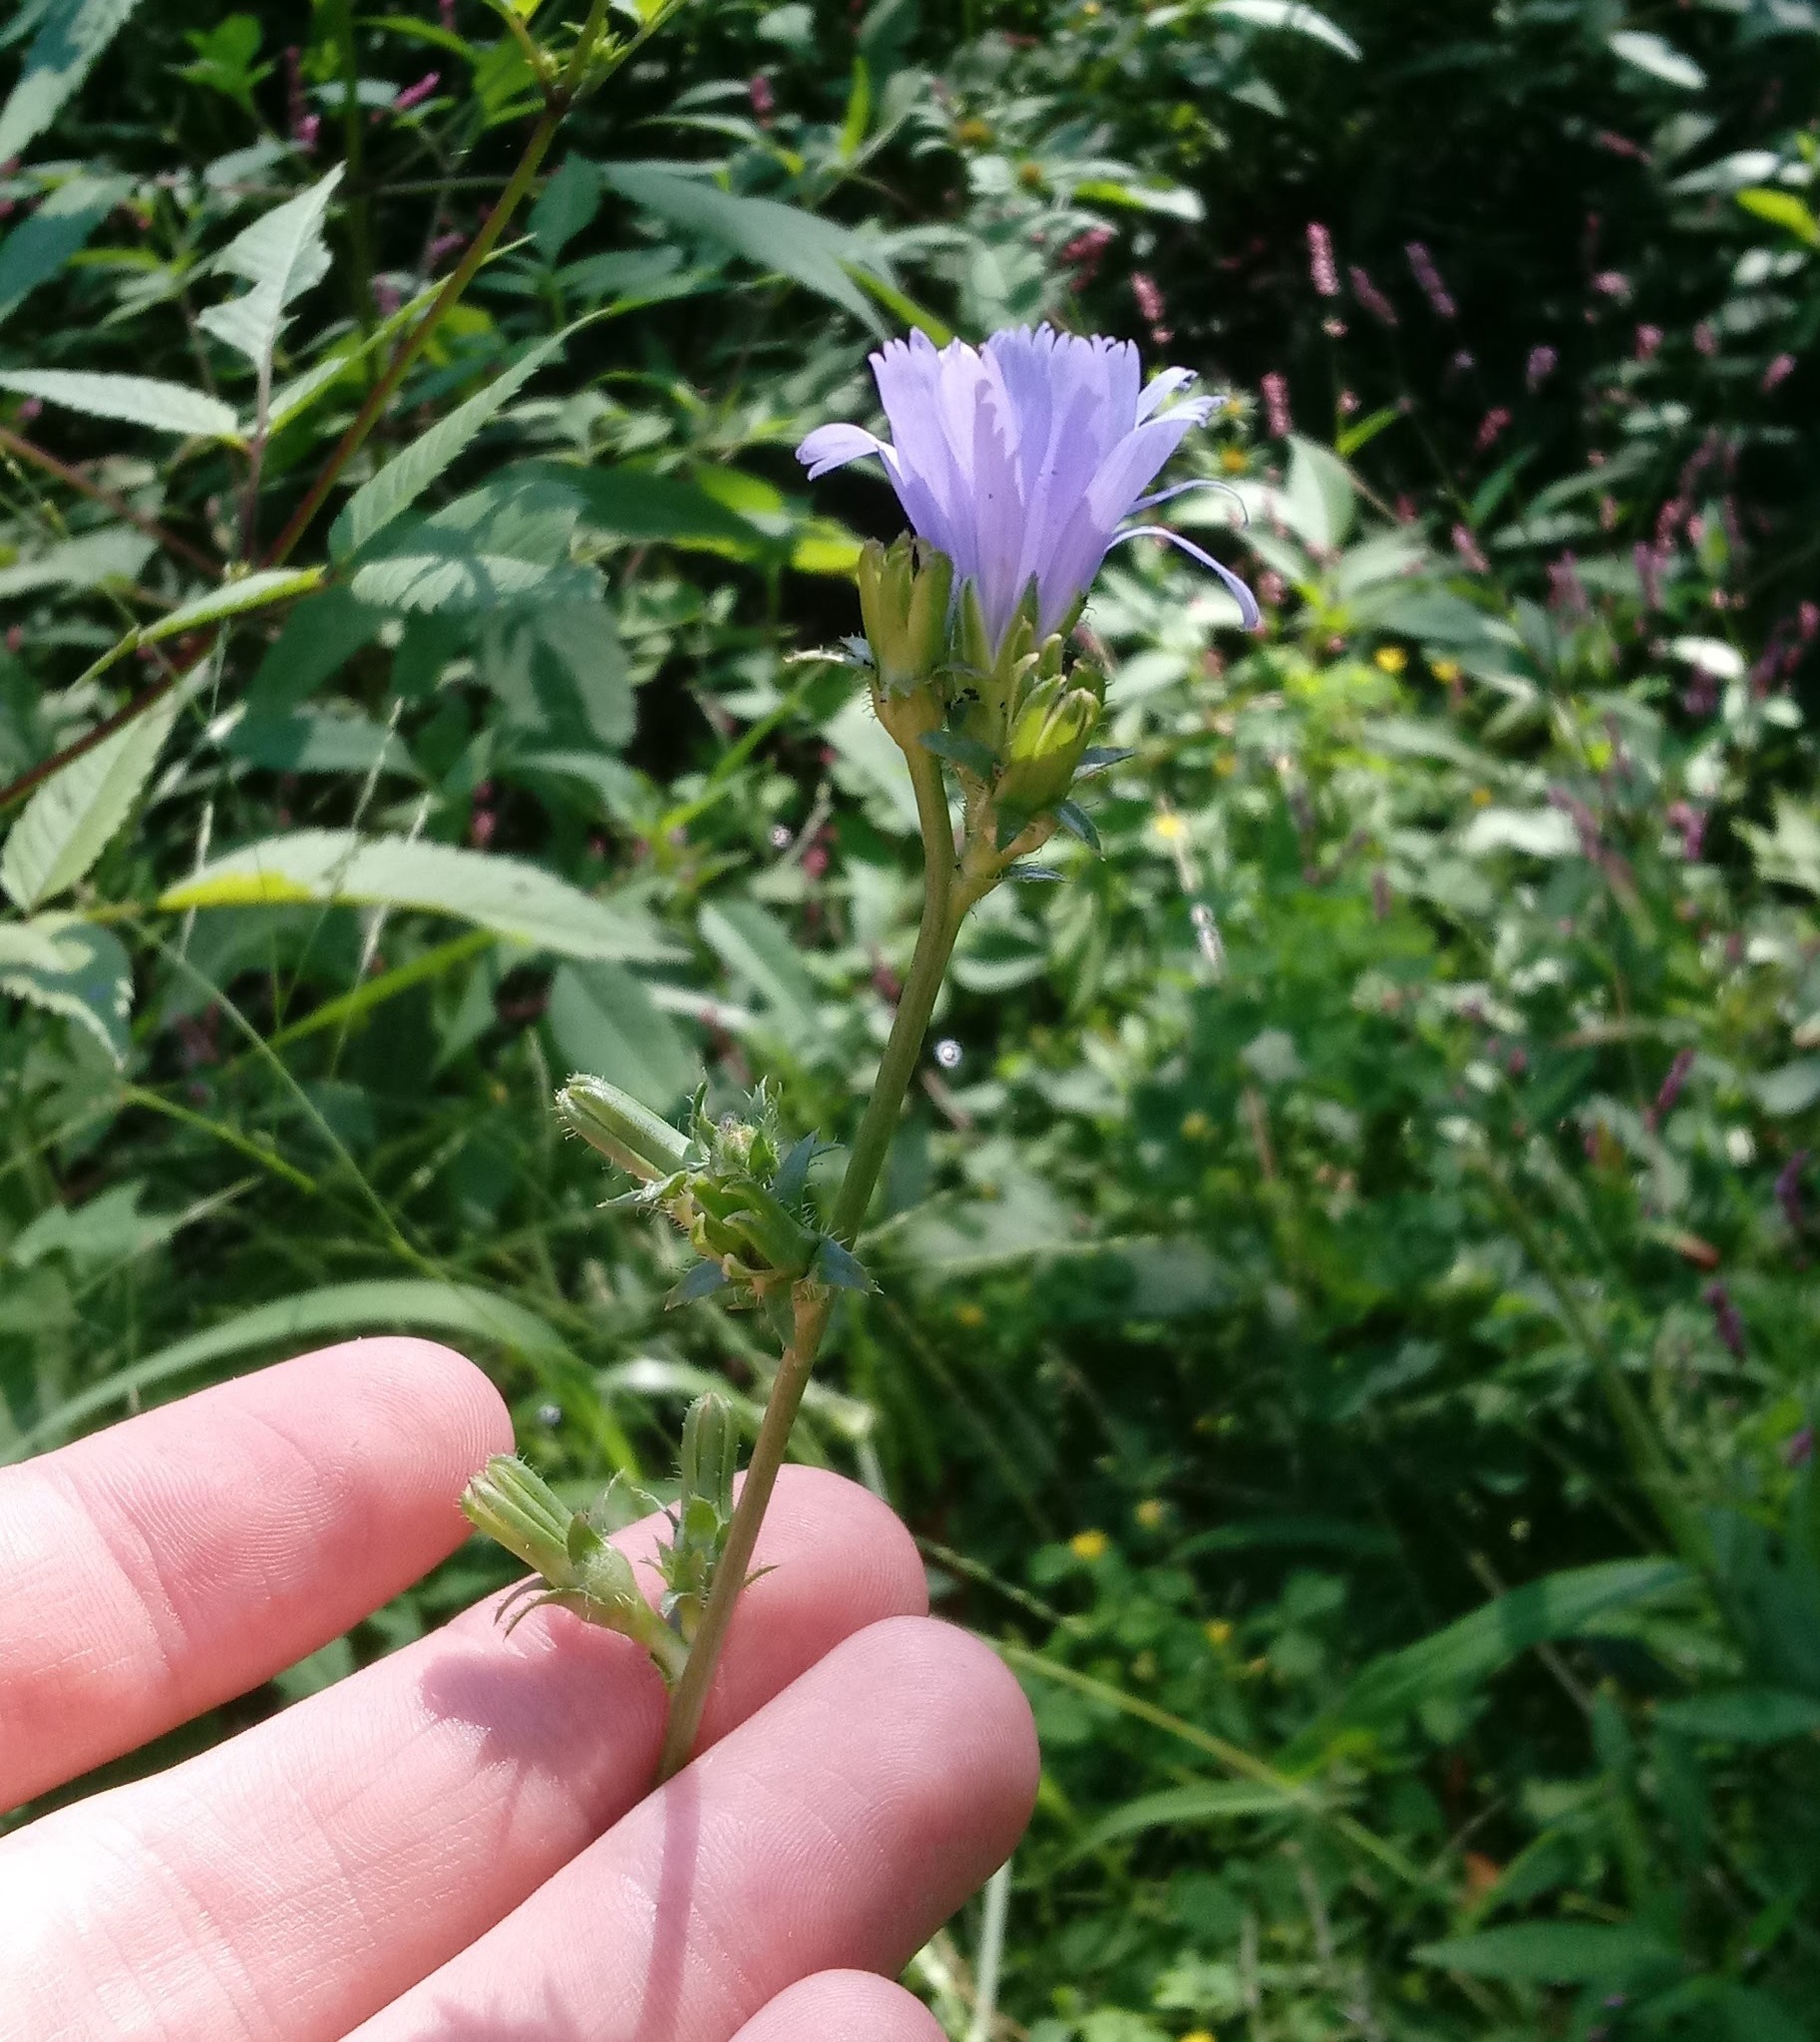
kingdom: Plantae
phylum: Tracheophyta
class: Magnoliopsida
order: Asterales
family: Asteraceae
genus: Cichorium
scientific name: Cichorium intybus
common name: Chicory
